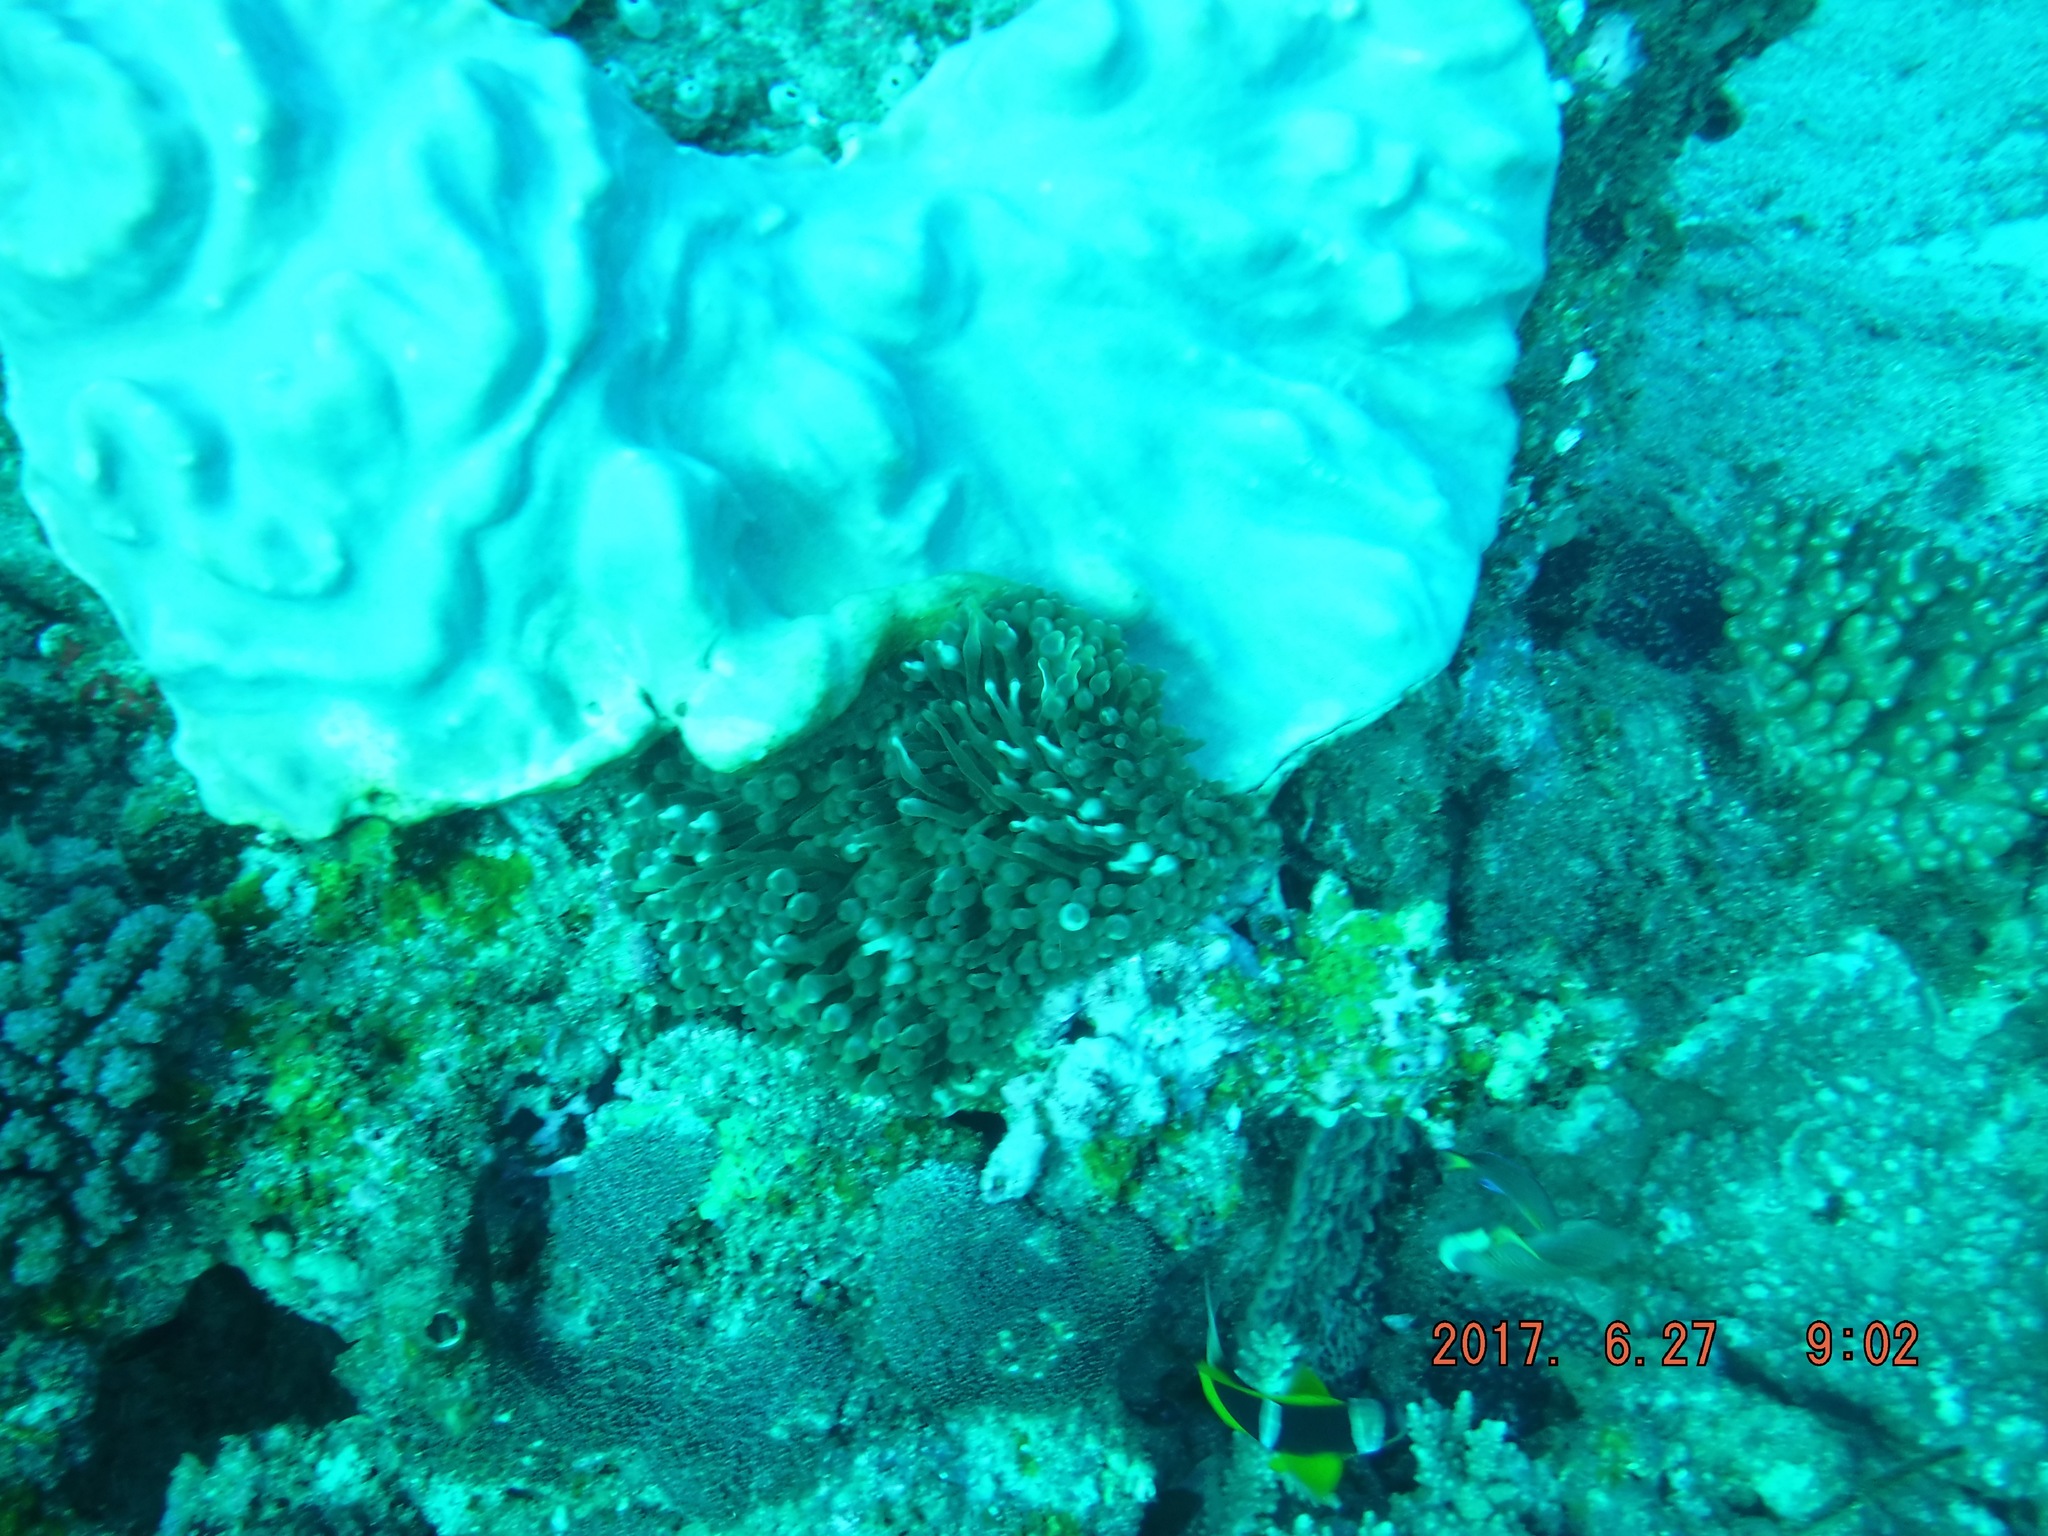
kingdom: Animalia
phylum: Cnidaria
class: Anthozoa
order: Actiniaria
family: Actiniidae
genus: Entacmaea
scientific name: Entacmaea quadricolor
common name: Bulb tentacle sea anemone
